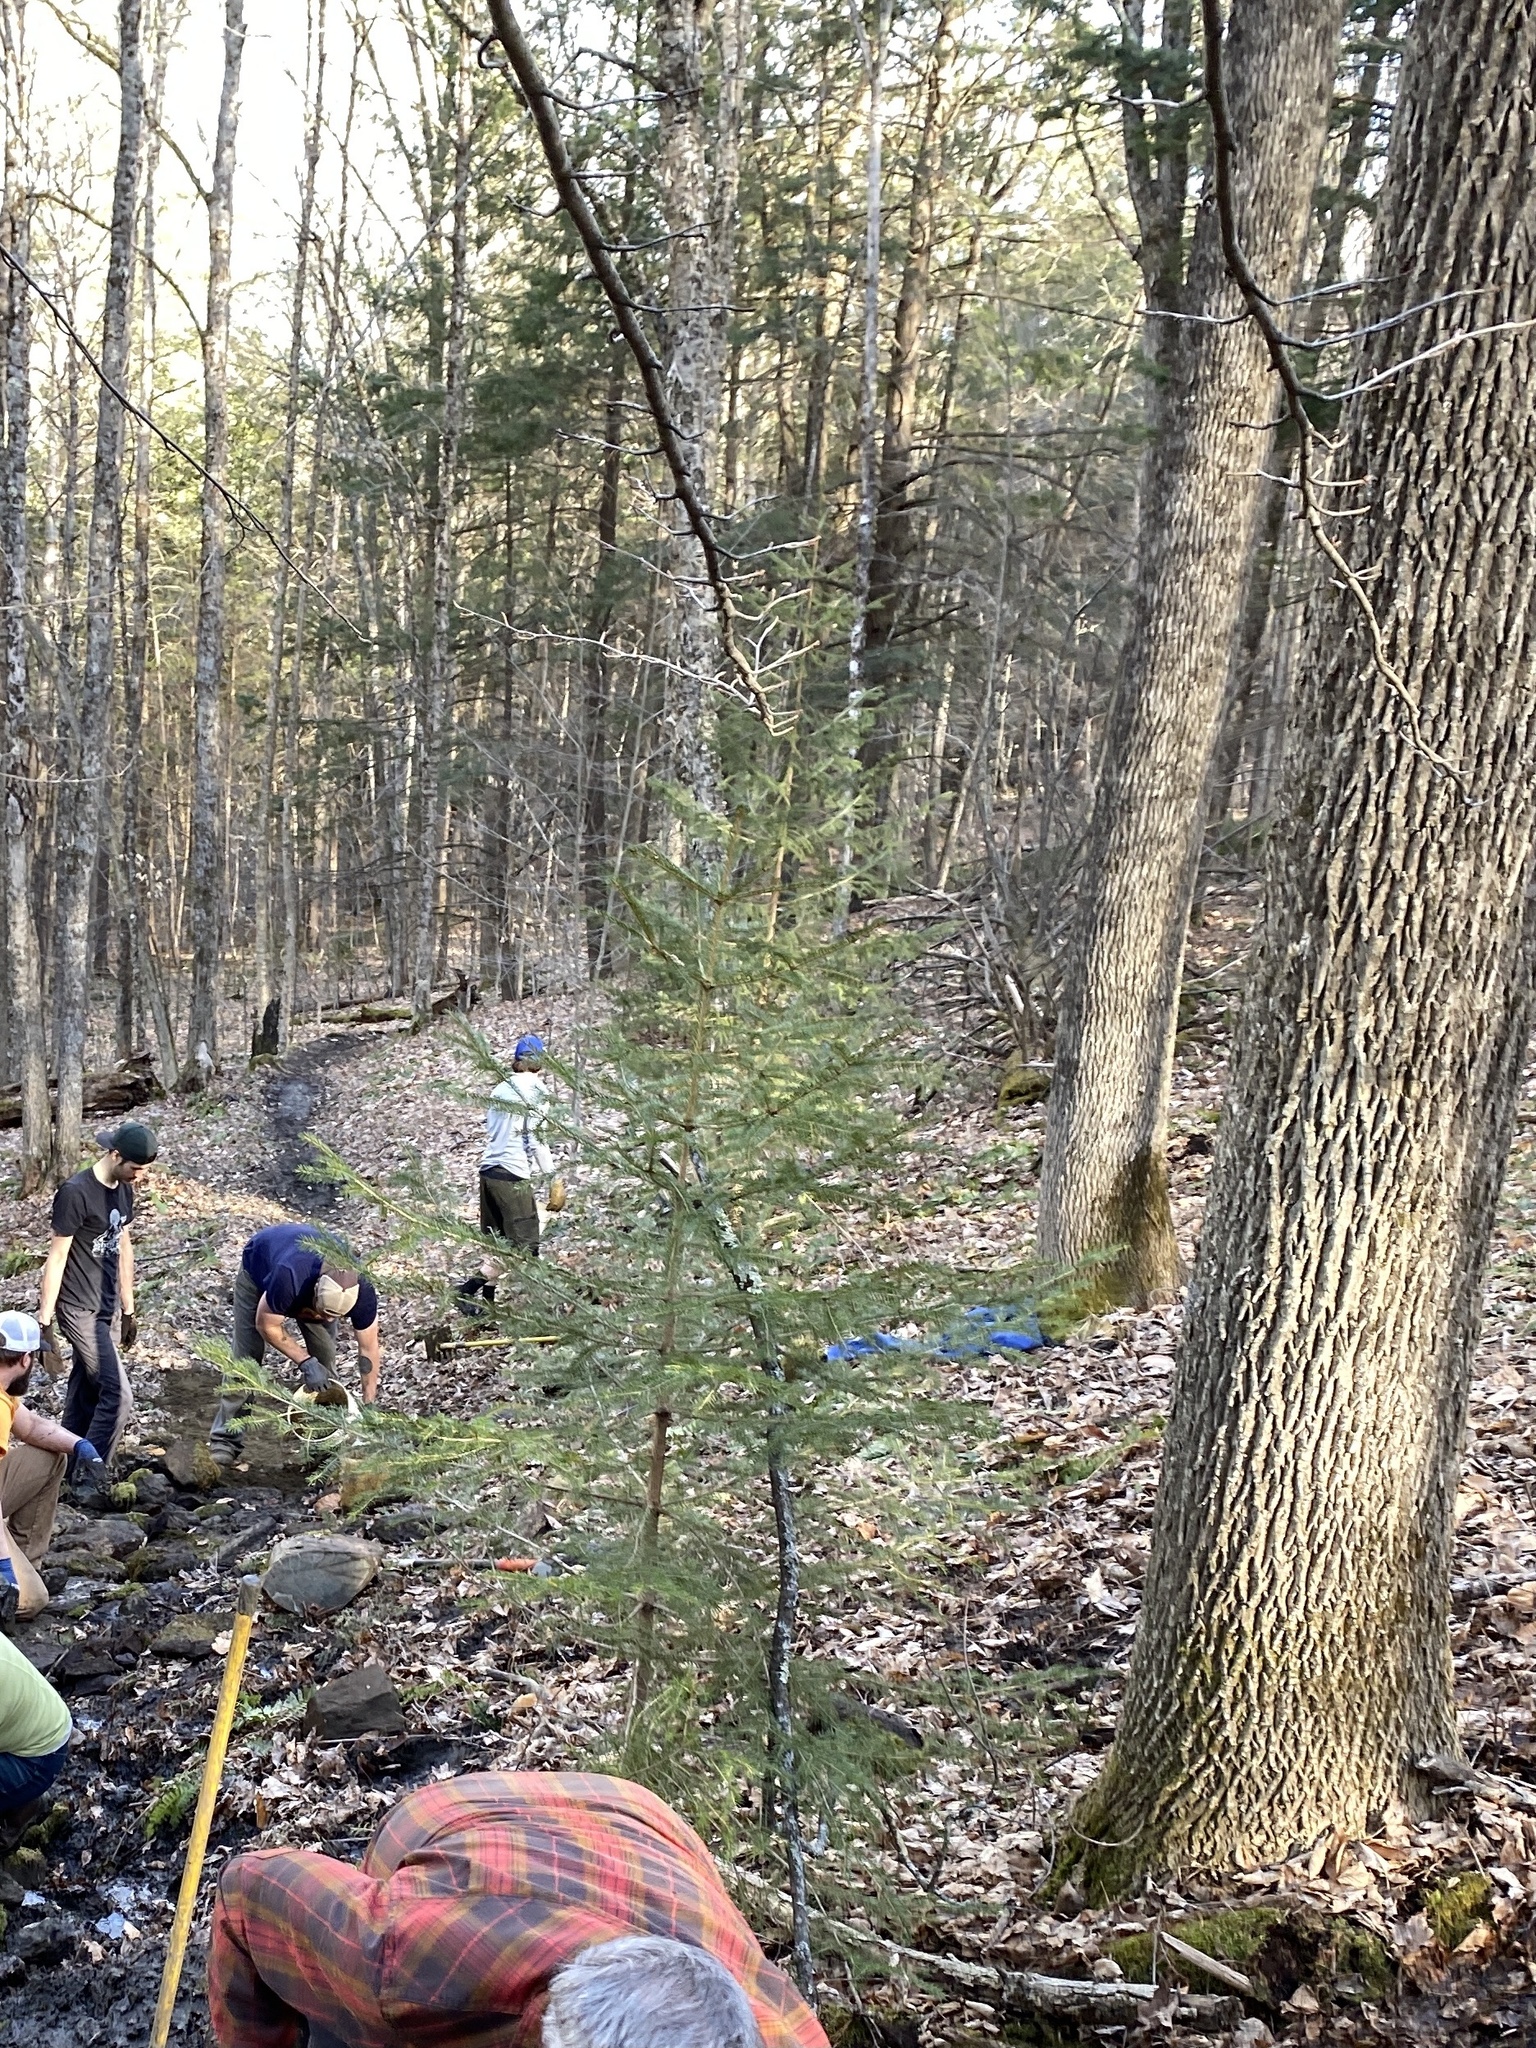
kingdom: Plantae
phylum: Tracheophyta
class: Magnoliopsida
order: Lamiales
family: Oleaceae
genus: Fraxinus
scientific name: Fraxinus americana
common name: White ash
